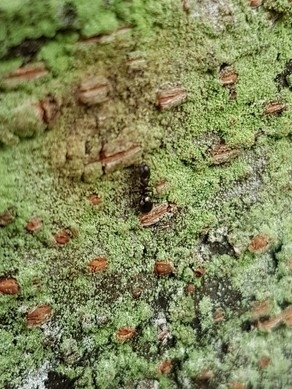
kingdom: Animalia
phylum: Arthropoda
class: Insecta
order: Hymenoptera
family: Formicidae
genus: Dolichoderus
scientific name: Dolichoderus sibiricus
